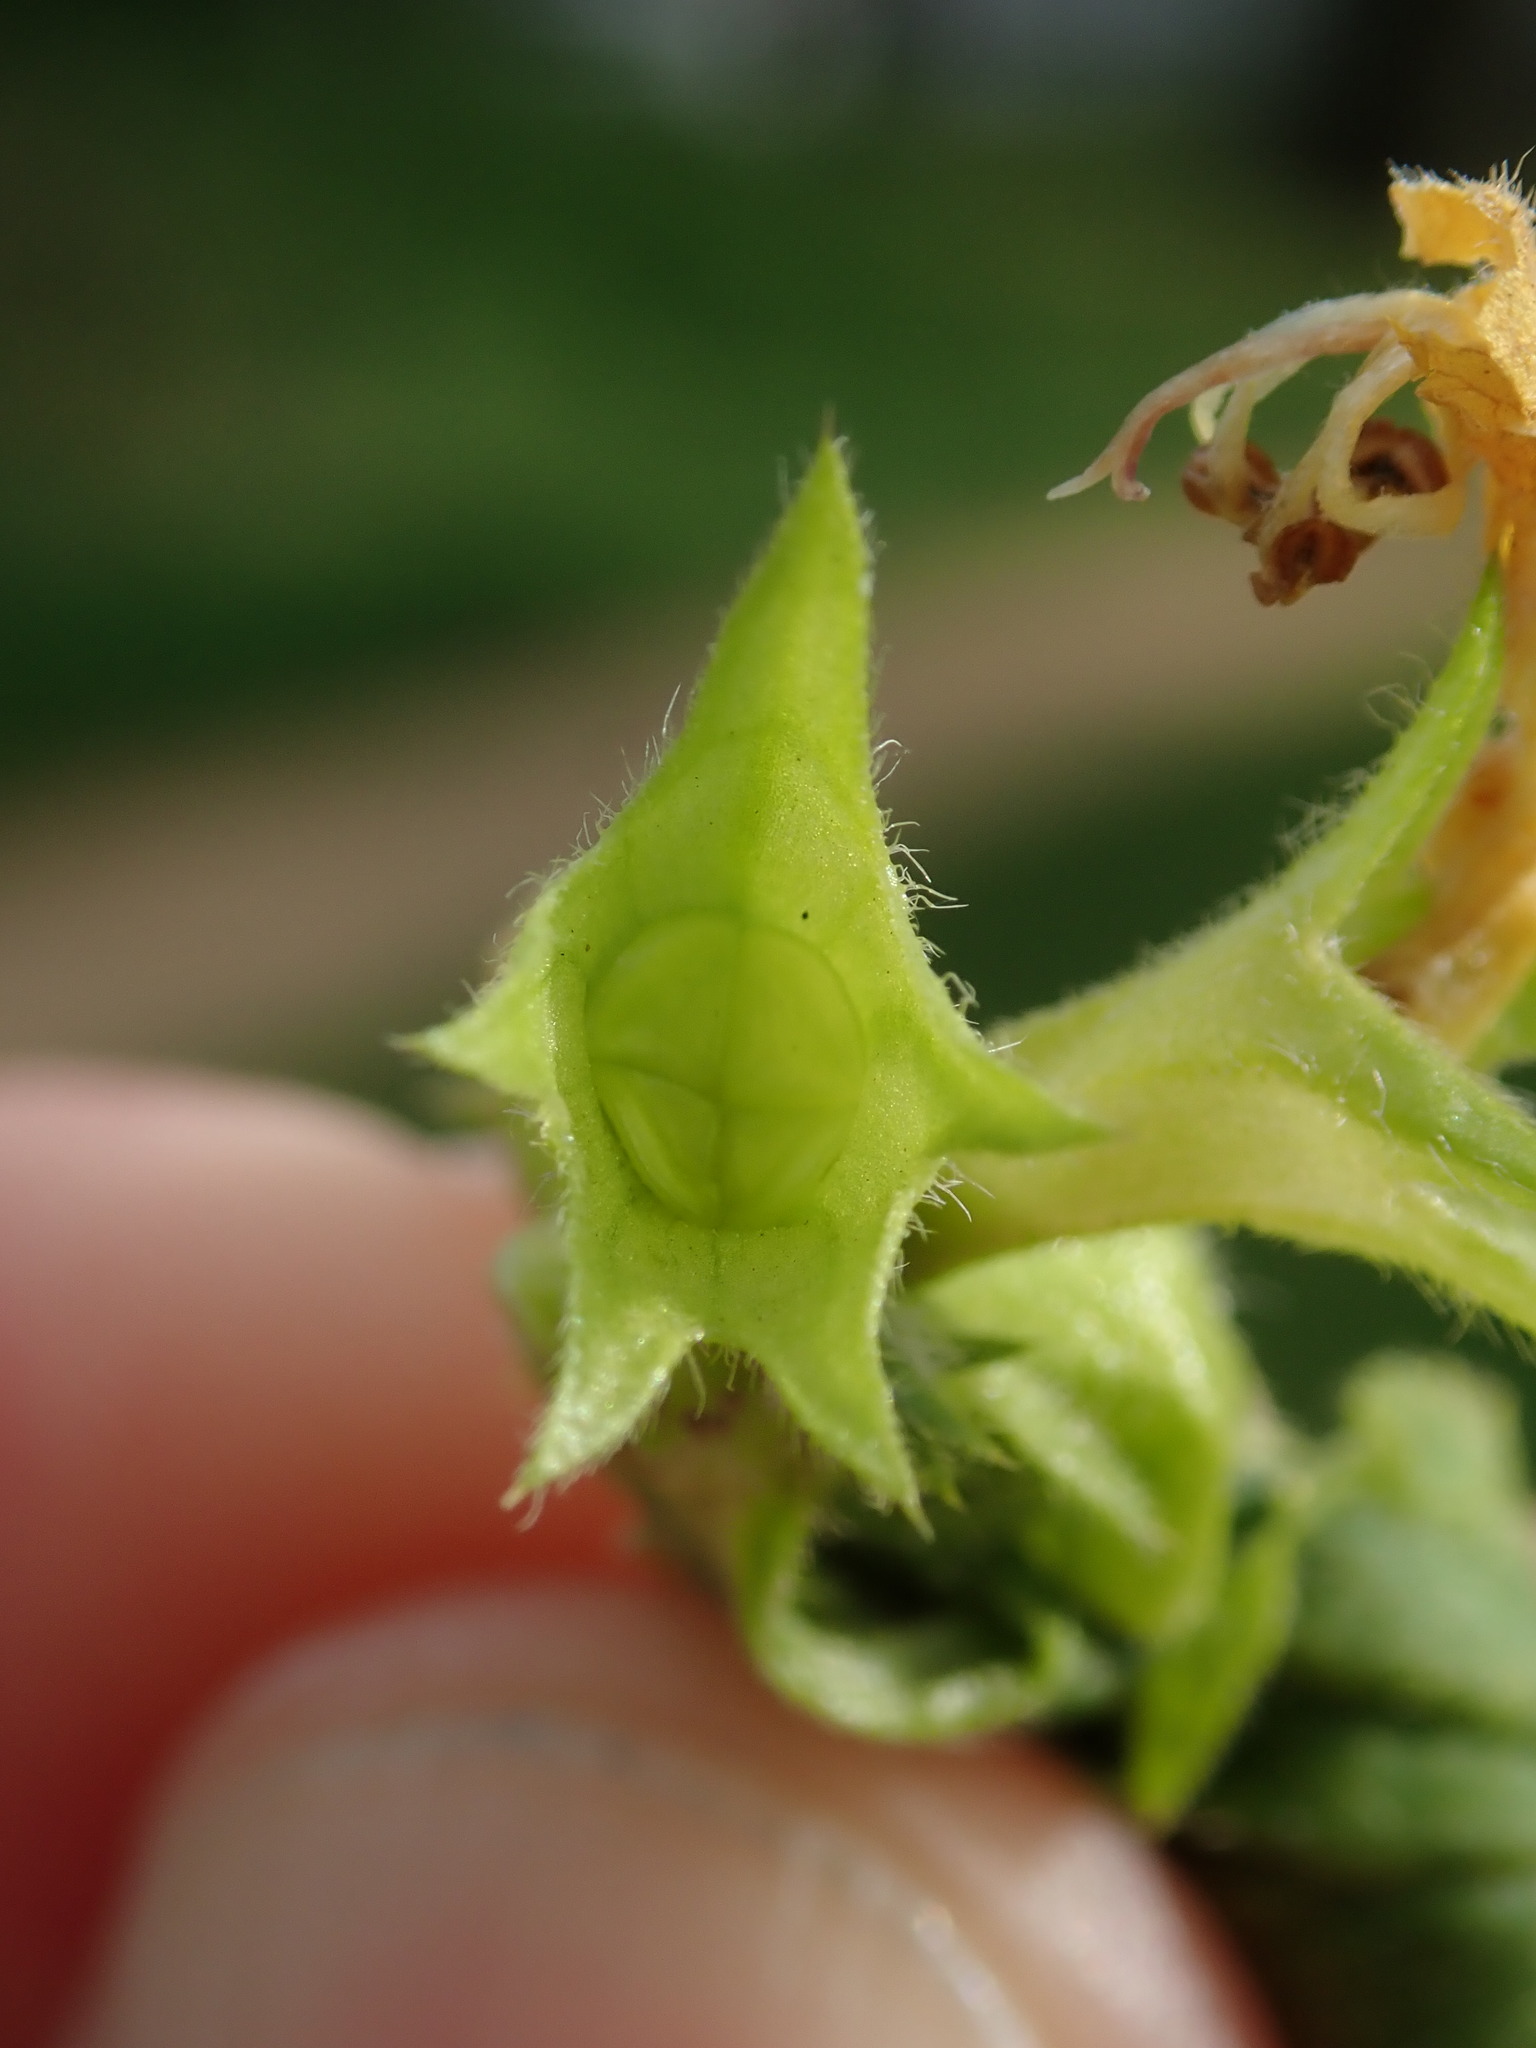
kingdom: Plantae
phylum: Tracheophyta
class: Magnoliopsida
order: Lamiales
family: Lamiaceae
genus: Lamium
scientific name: Lamium galeobdolon
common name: Yellow archangel
